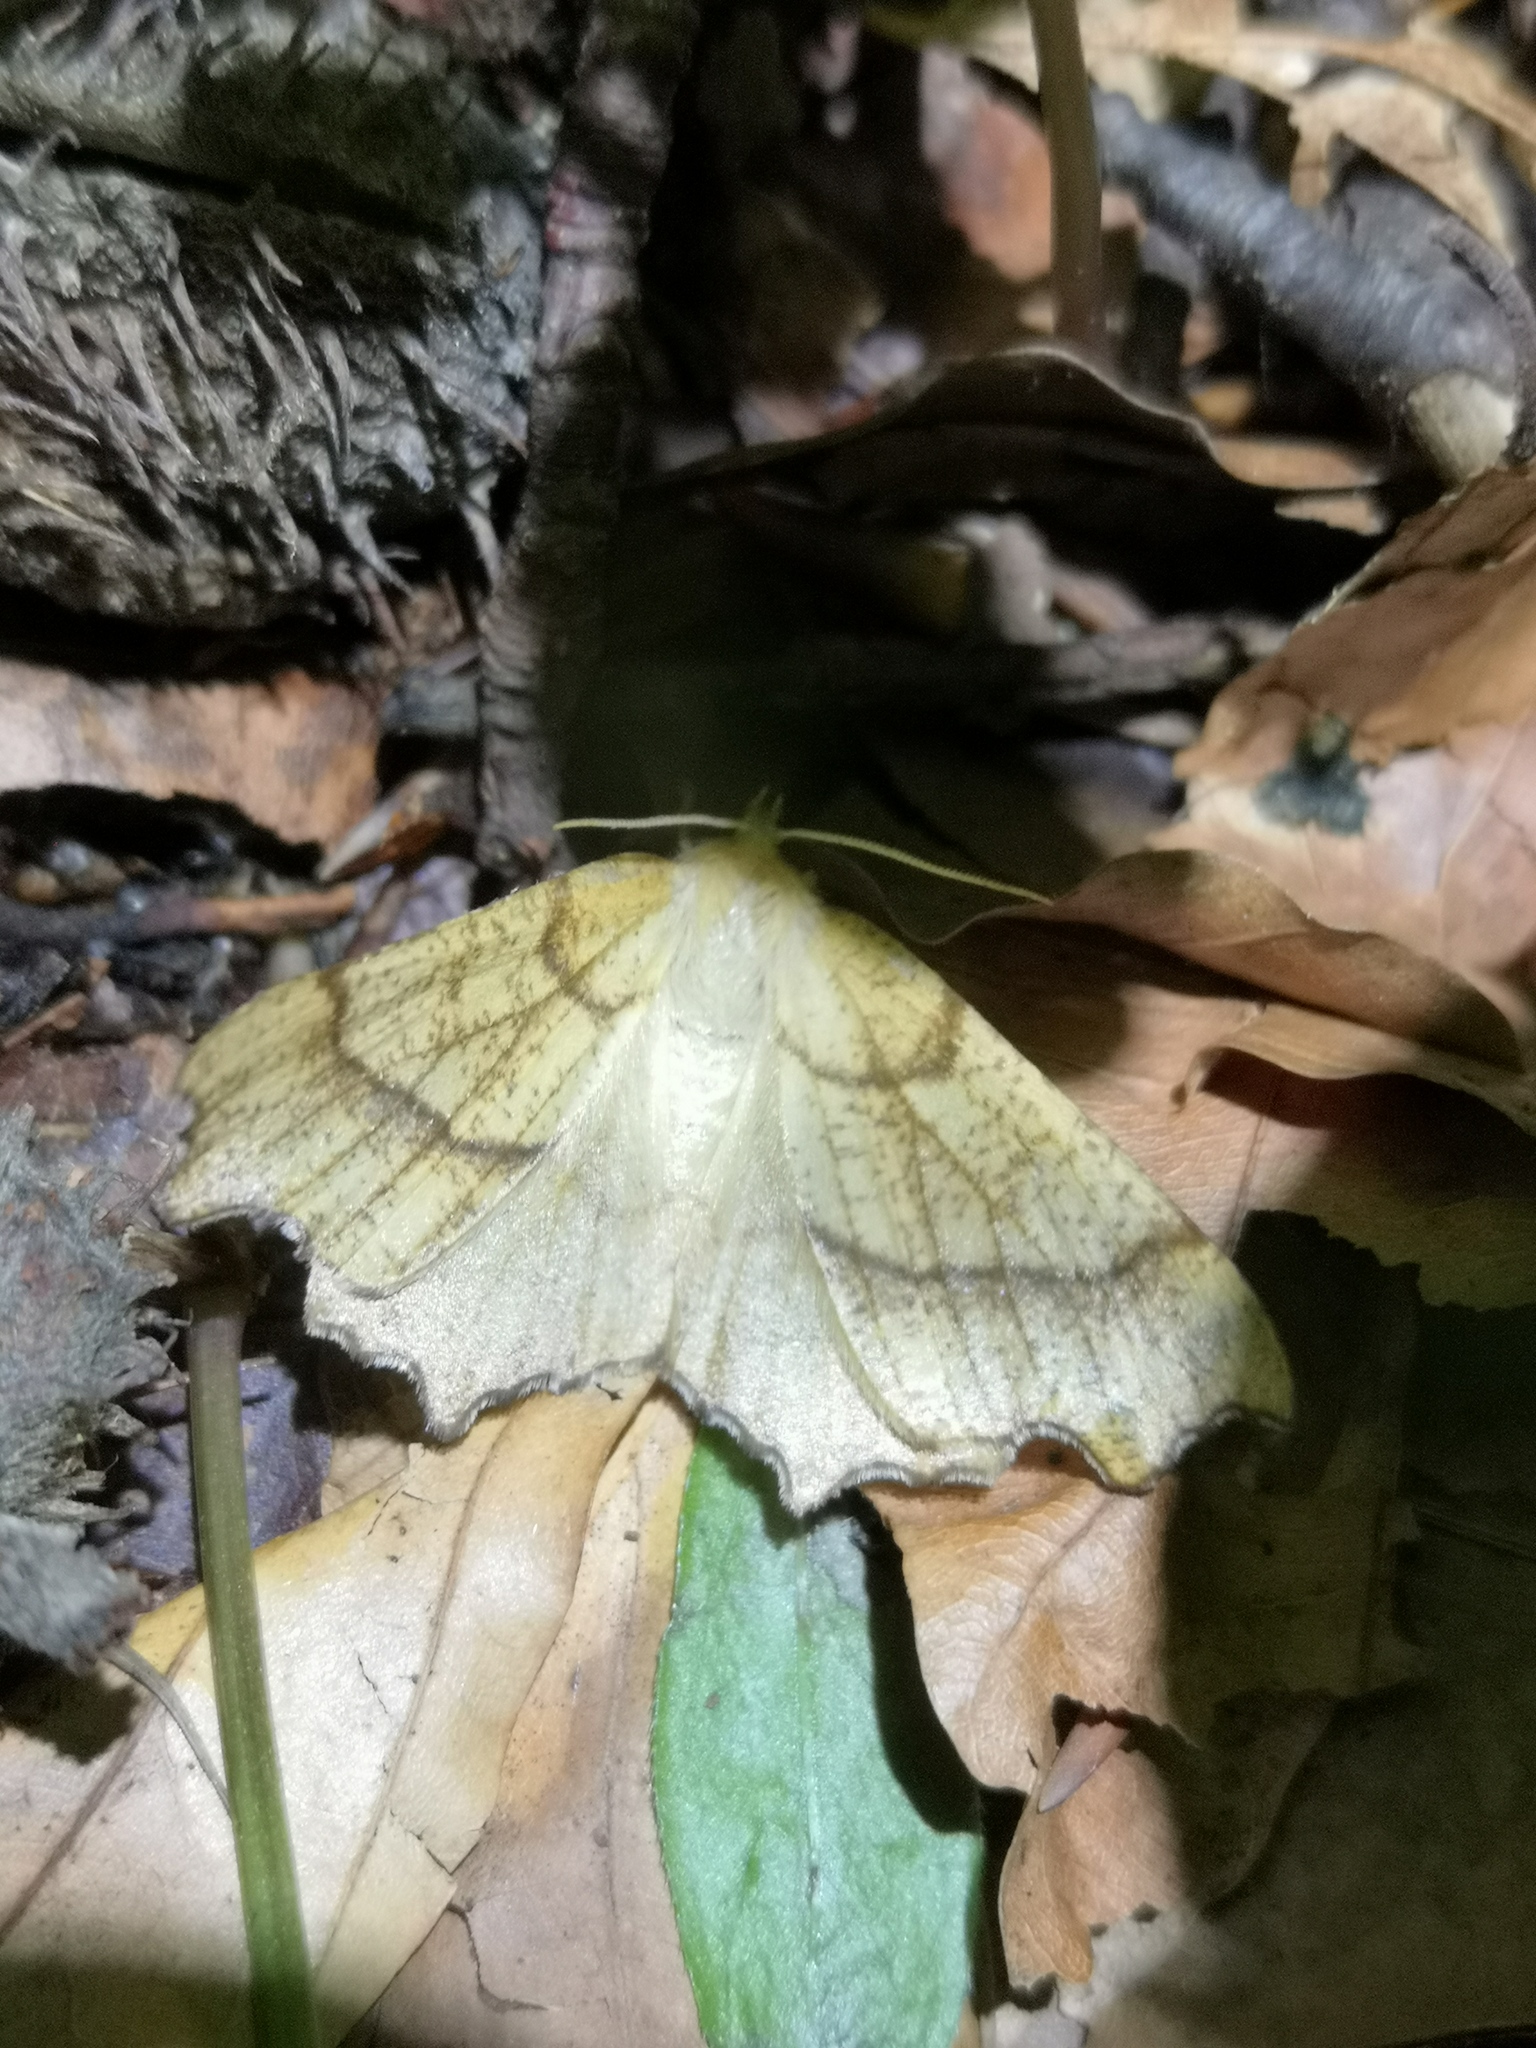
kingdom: Animalia
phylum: Arthropoda
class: Insecta
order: Lepidoptera
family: Geometridae
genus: Ennomos
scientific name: Ennomos quercinaria
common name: August thorn
